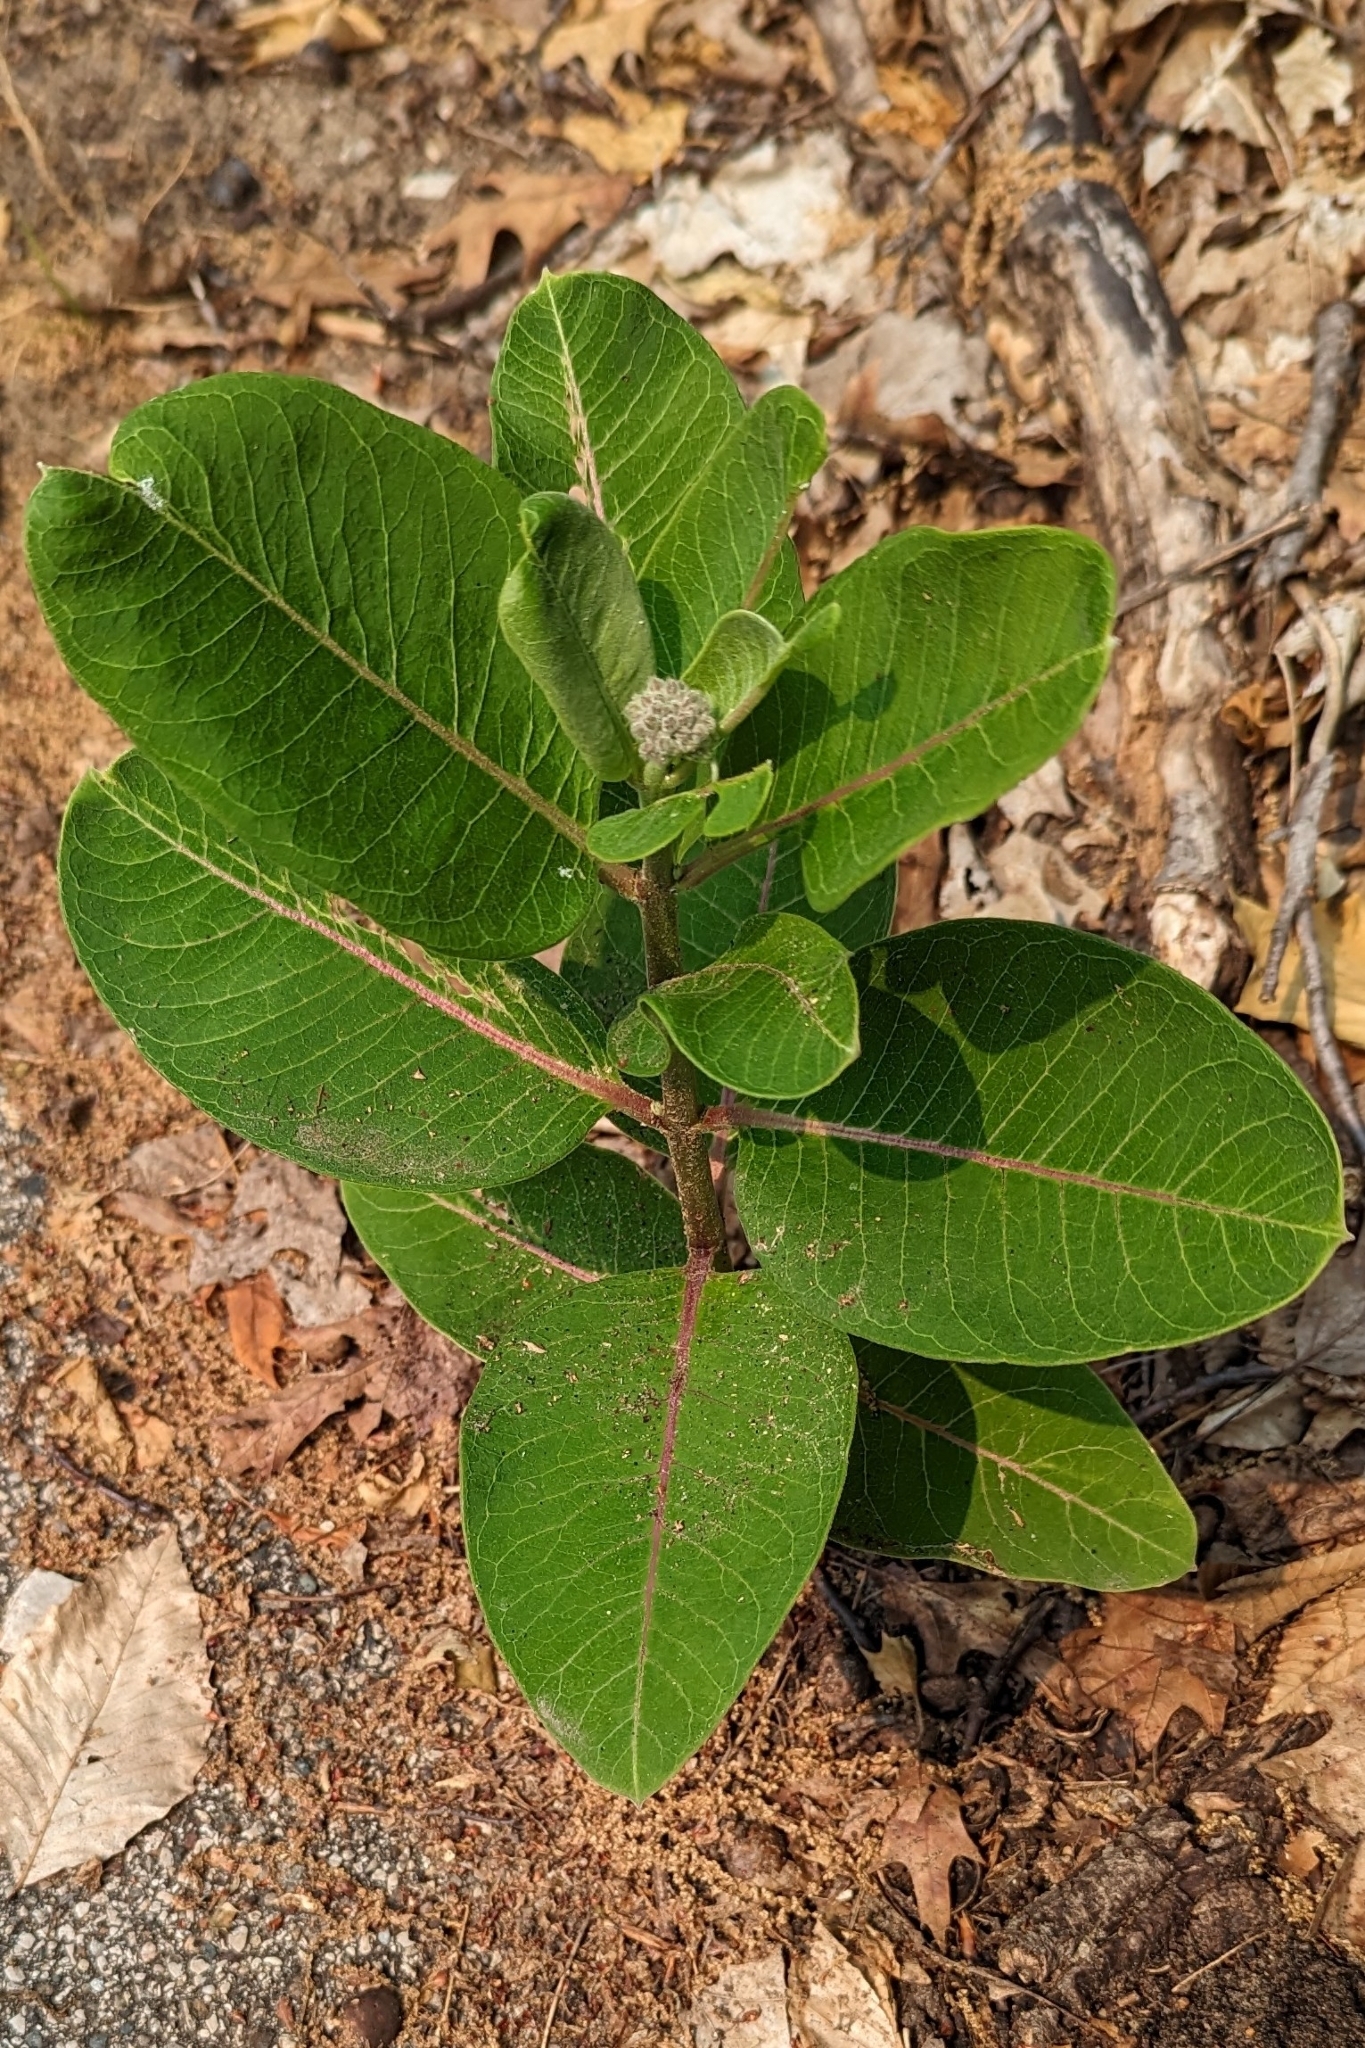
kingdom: Plantae
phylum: Tracheophyta
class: Magnoliopsida
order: Gentianales
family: Apocynaceae
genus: Asclepias
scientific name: Asclepias syriaca
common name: Common milkweed
